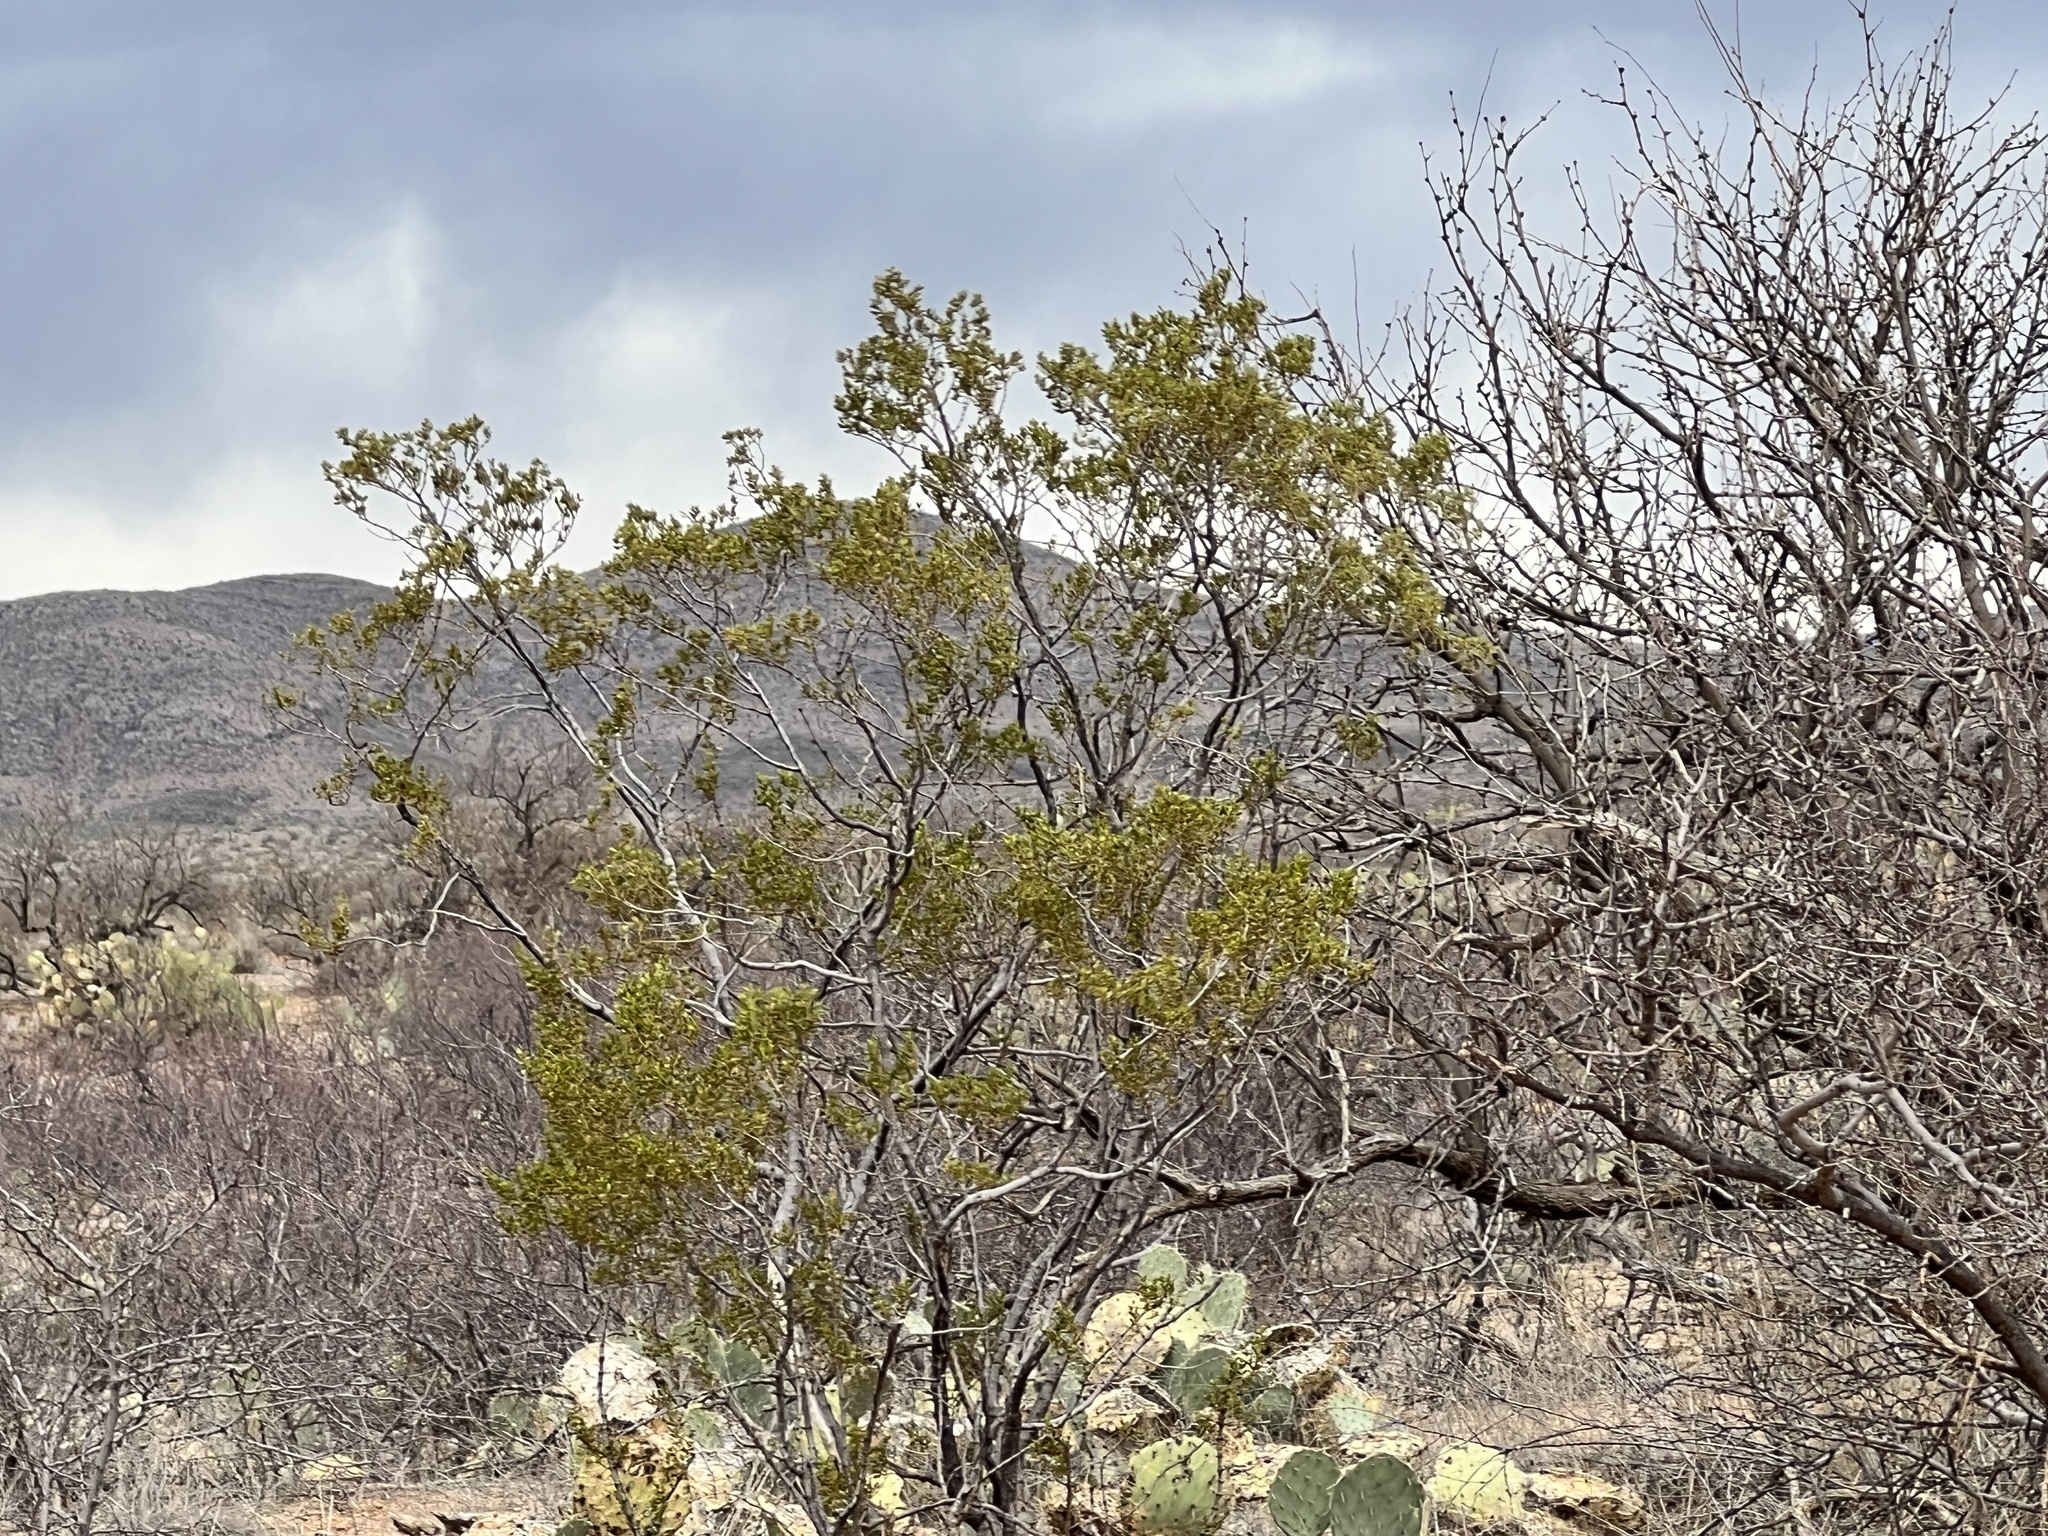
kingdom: Plantae
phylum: Tracheophyta
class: Magnoliopsida
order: Zygophyllales
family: Zygophyllaceae
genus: Larrea
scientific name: Larrea tridentata
